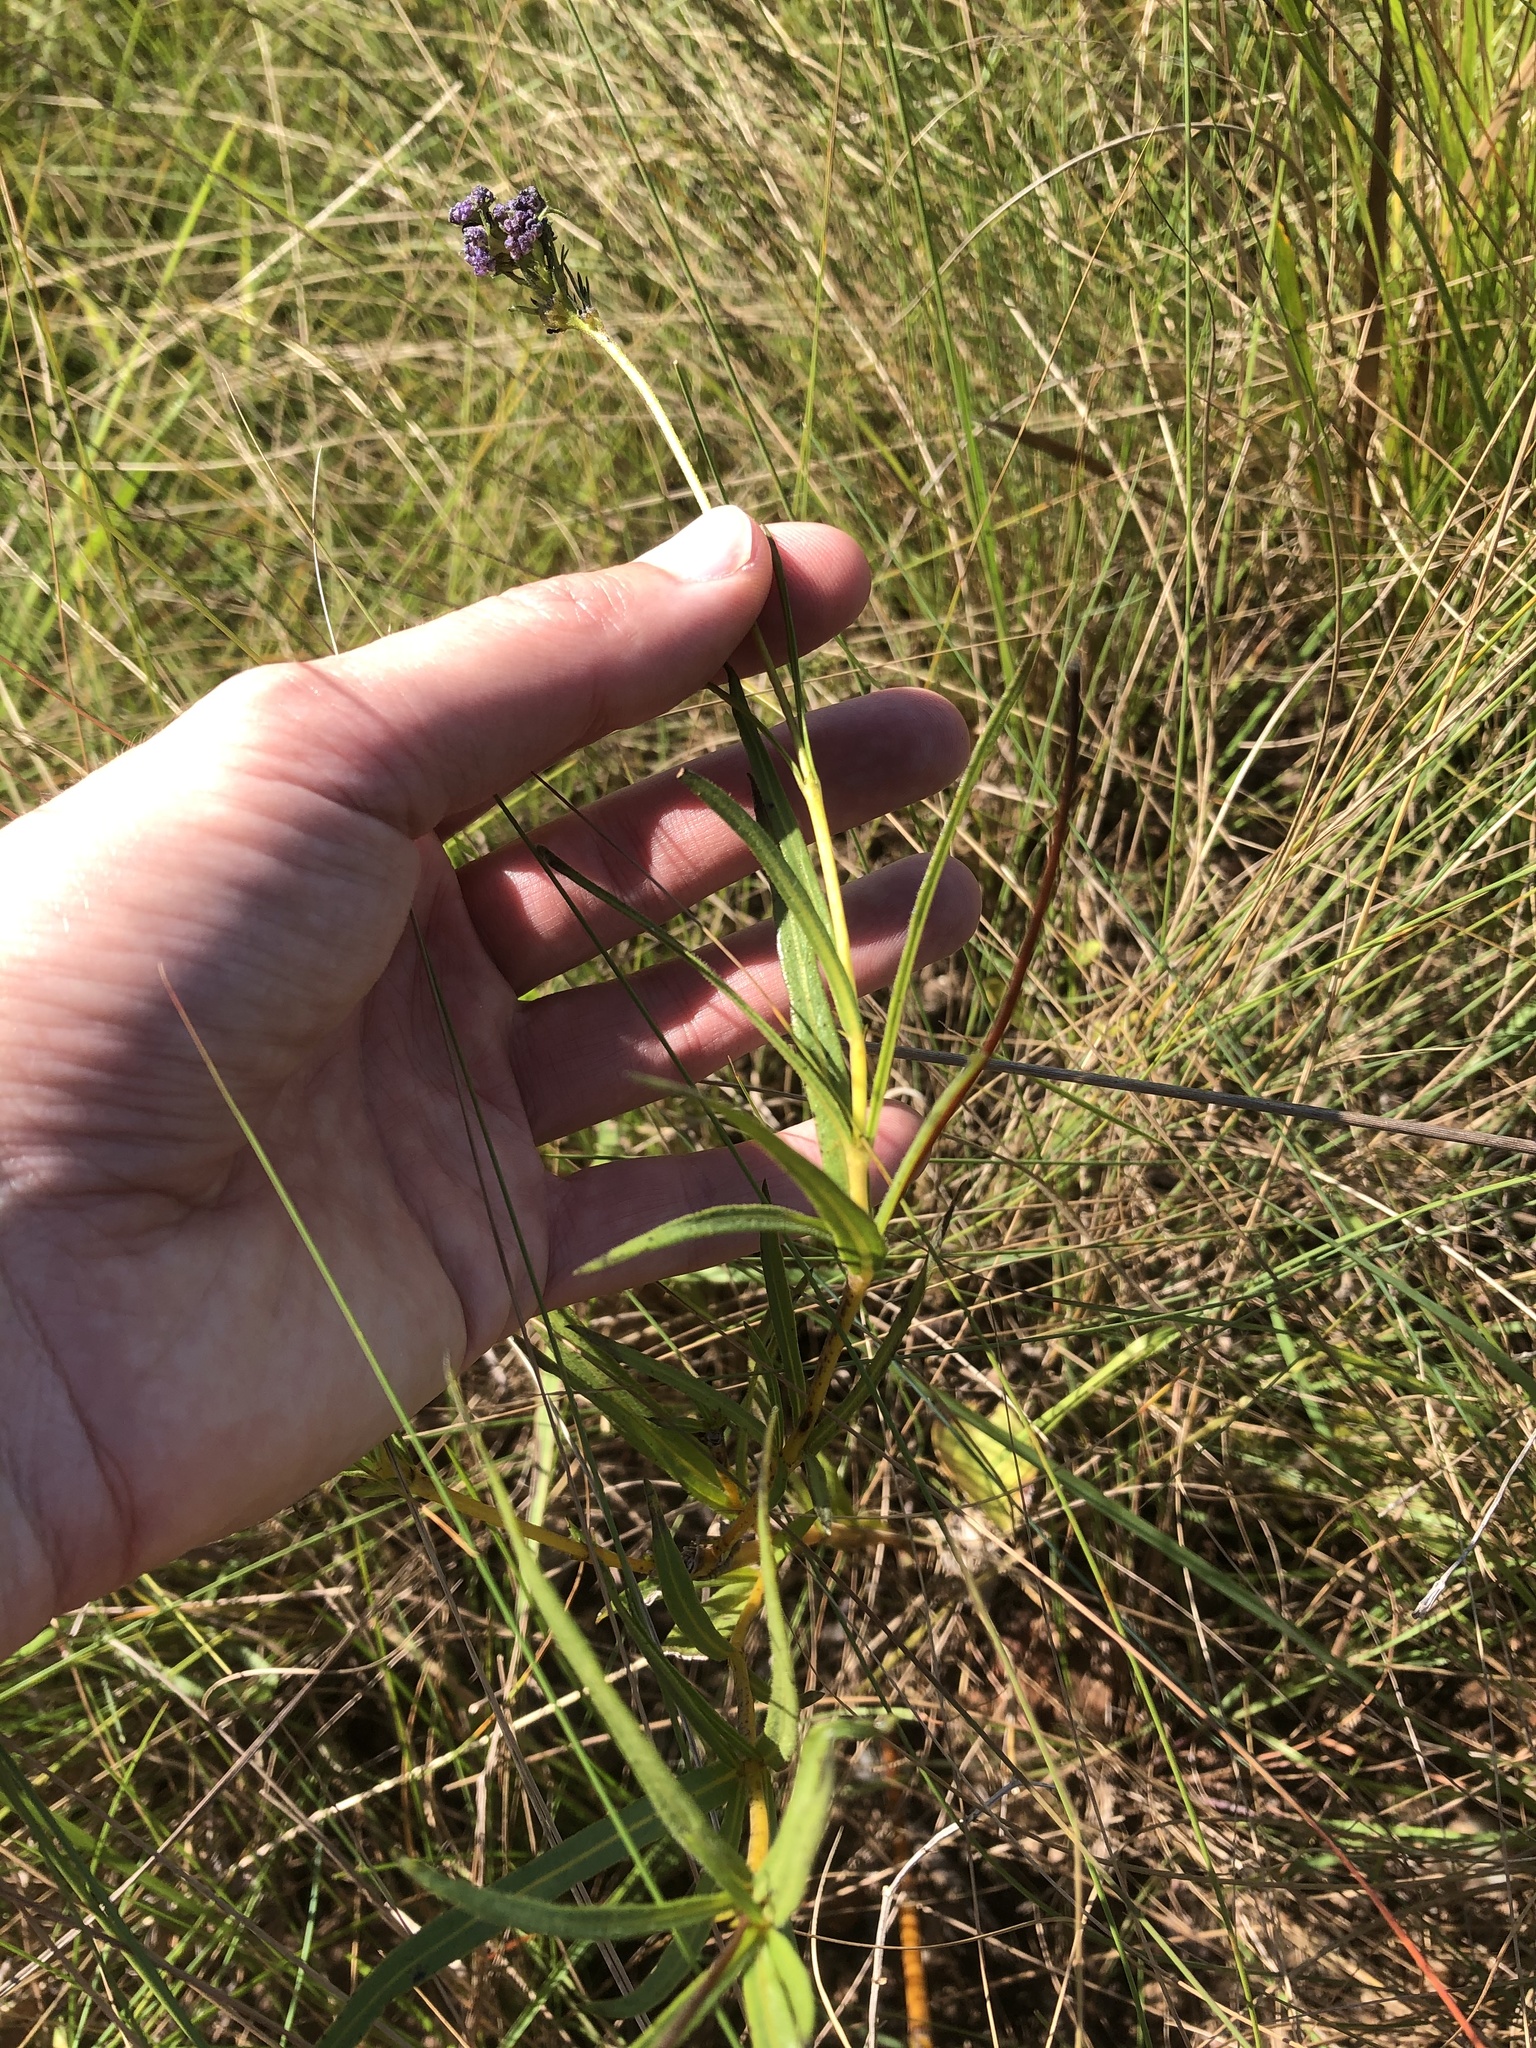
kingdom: Plantae
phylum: Tracheophyta
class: Magnoliopsida
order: Gentianales
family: Rubiaceae
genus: Pentanisia
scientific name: Pentanisia angustifolia
